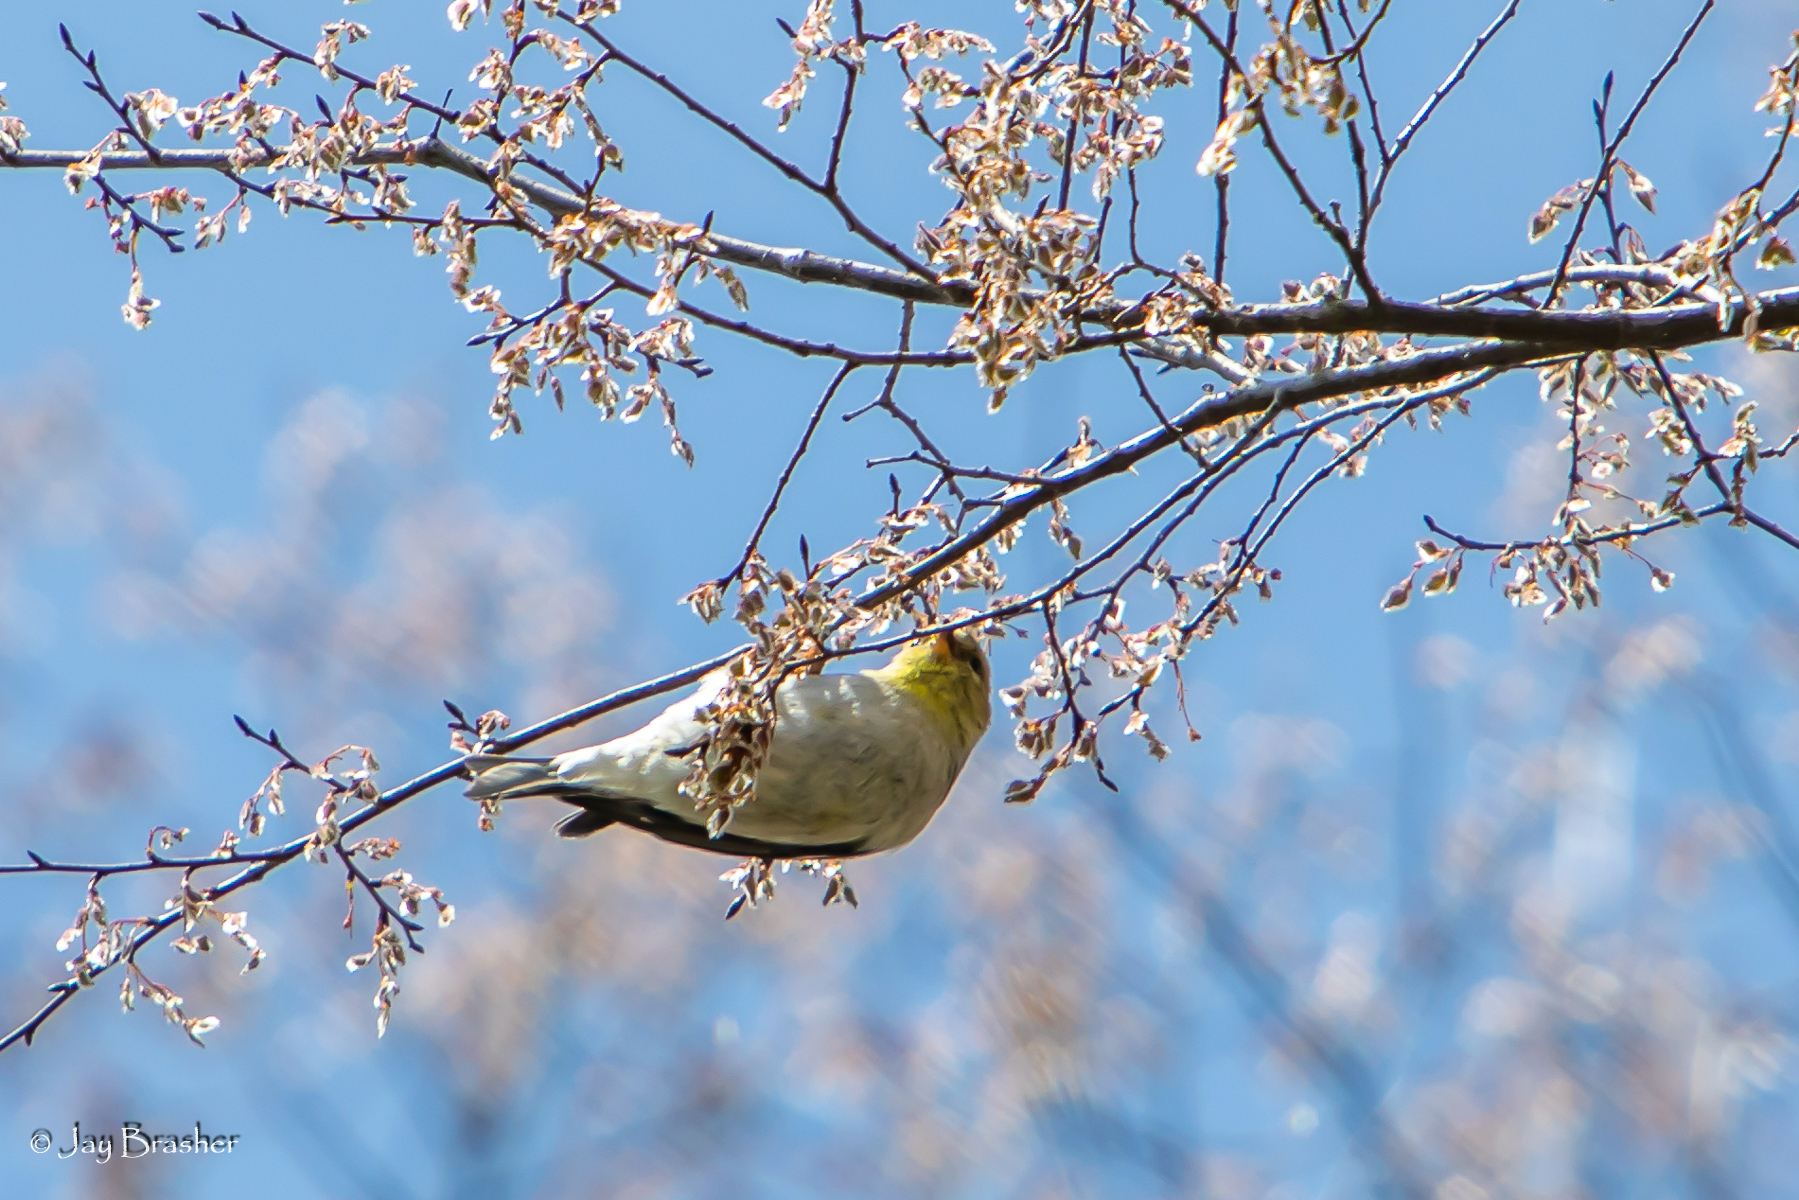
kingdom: Animalia
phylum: Chordata
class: Aves
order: Passeriformes
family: Fringillidae
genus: Spinus
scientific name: Spinus tristis
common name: American goldfinch
